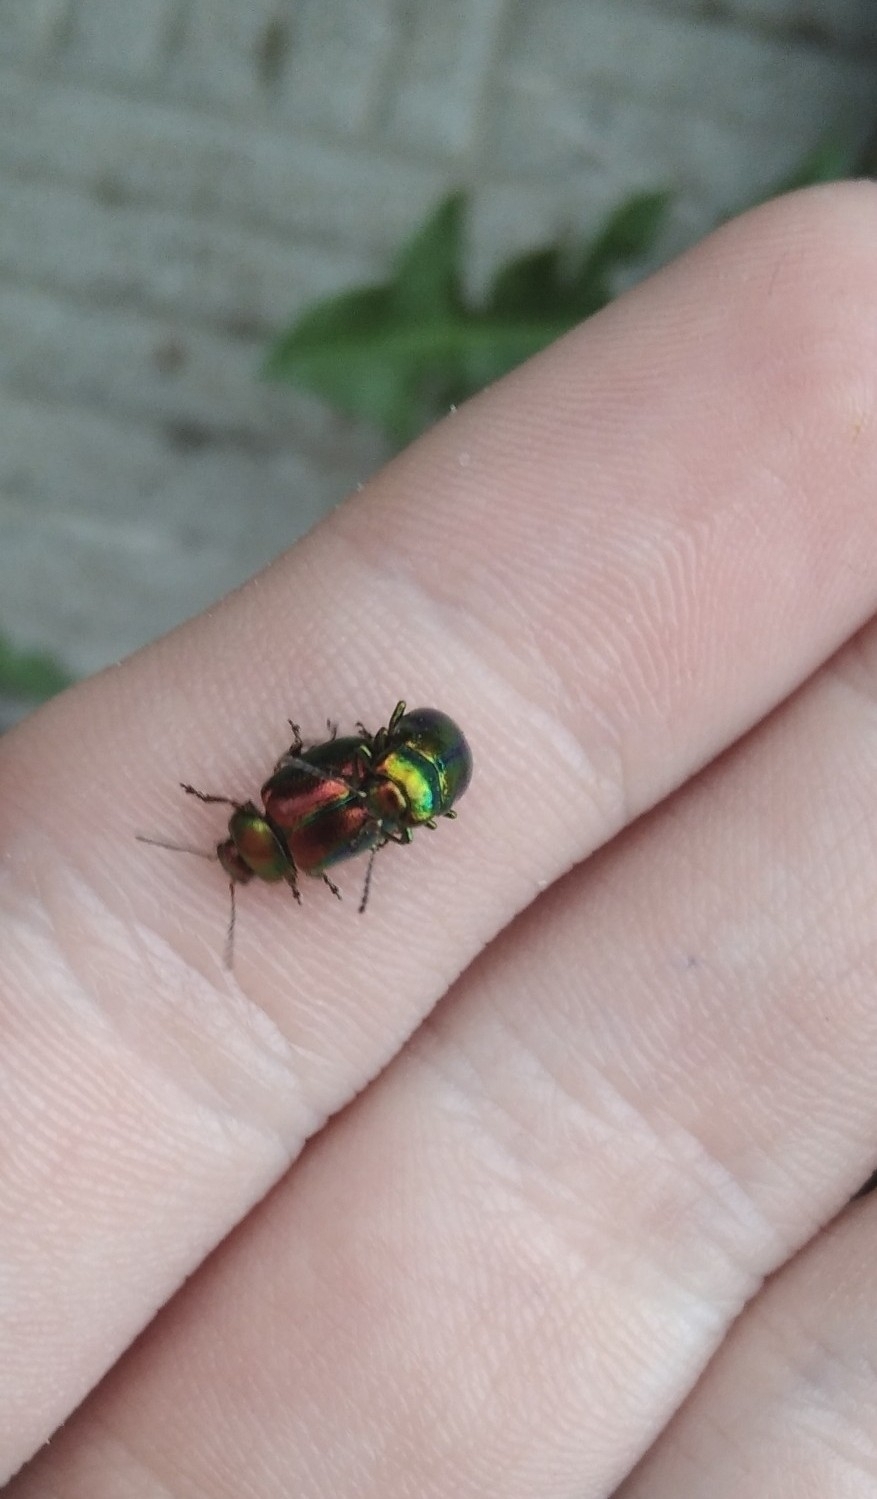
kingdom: Animalia
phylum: Arthropoda
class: Insecta
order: Coleoptera
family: Chrysomelidae
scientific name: Chrysomelidae
